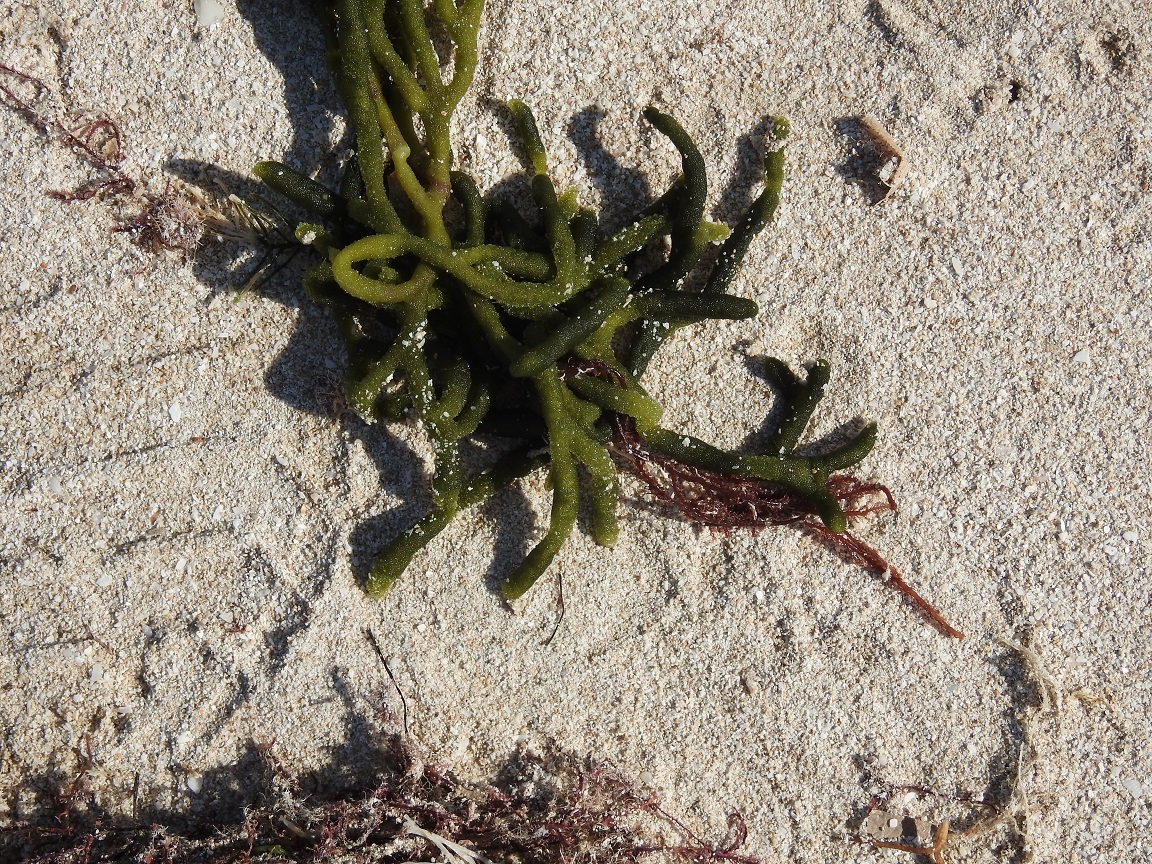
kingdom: Plantae
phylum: Chlorophyta
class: Ulvophyceae
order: Bryopsidales
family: Codiaceae
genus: Codium
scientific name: Codium isthmocladum
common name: Dead man's fingers
